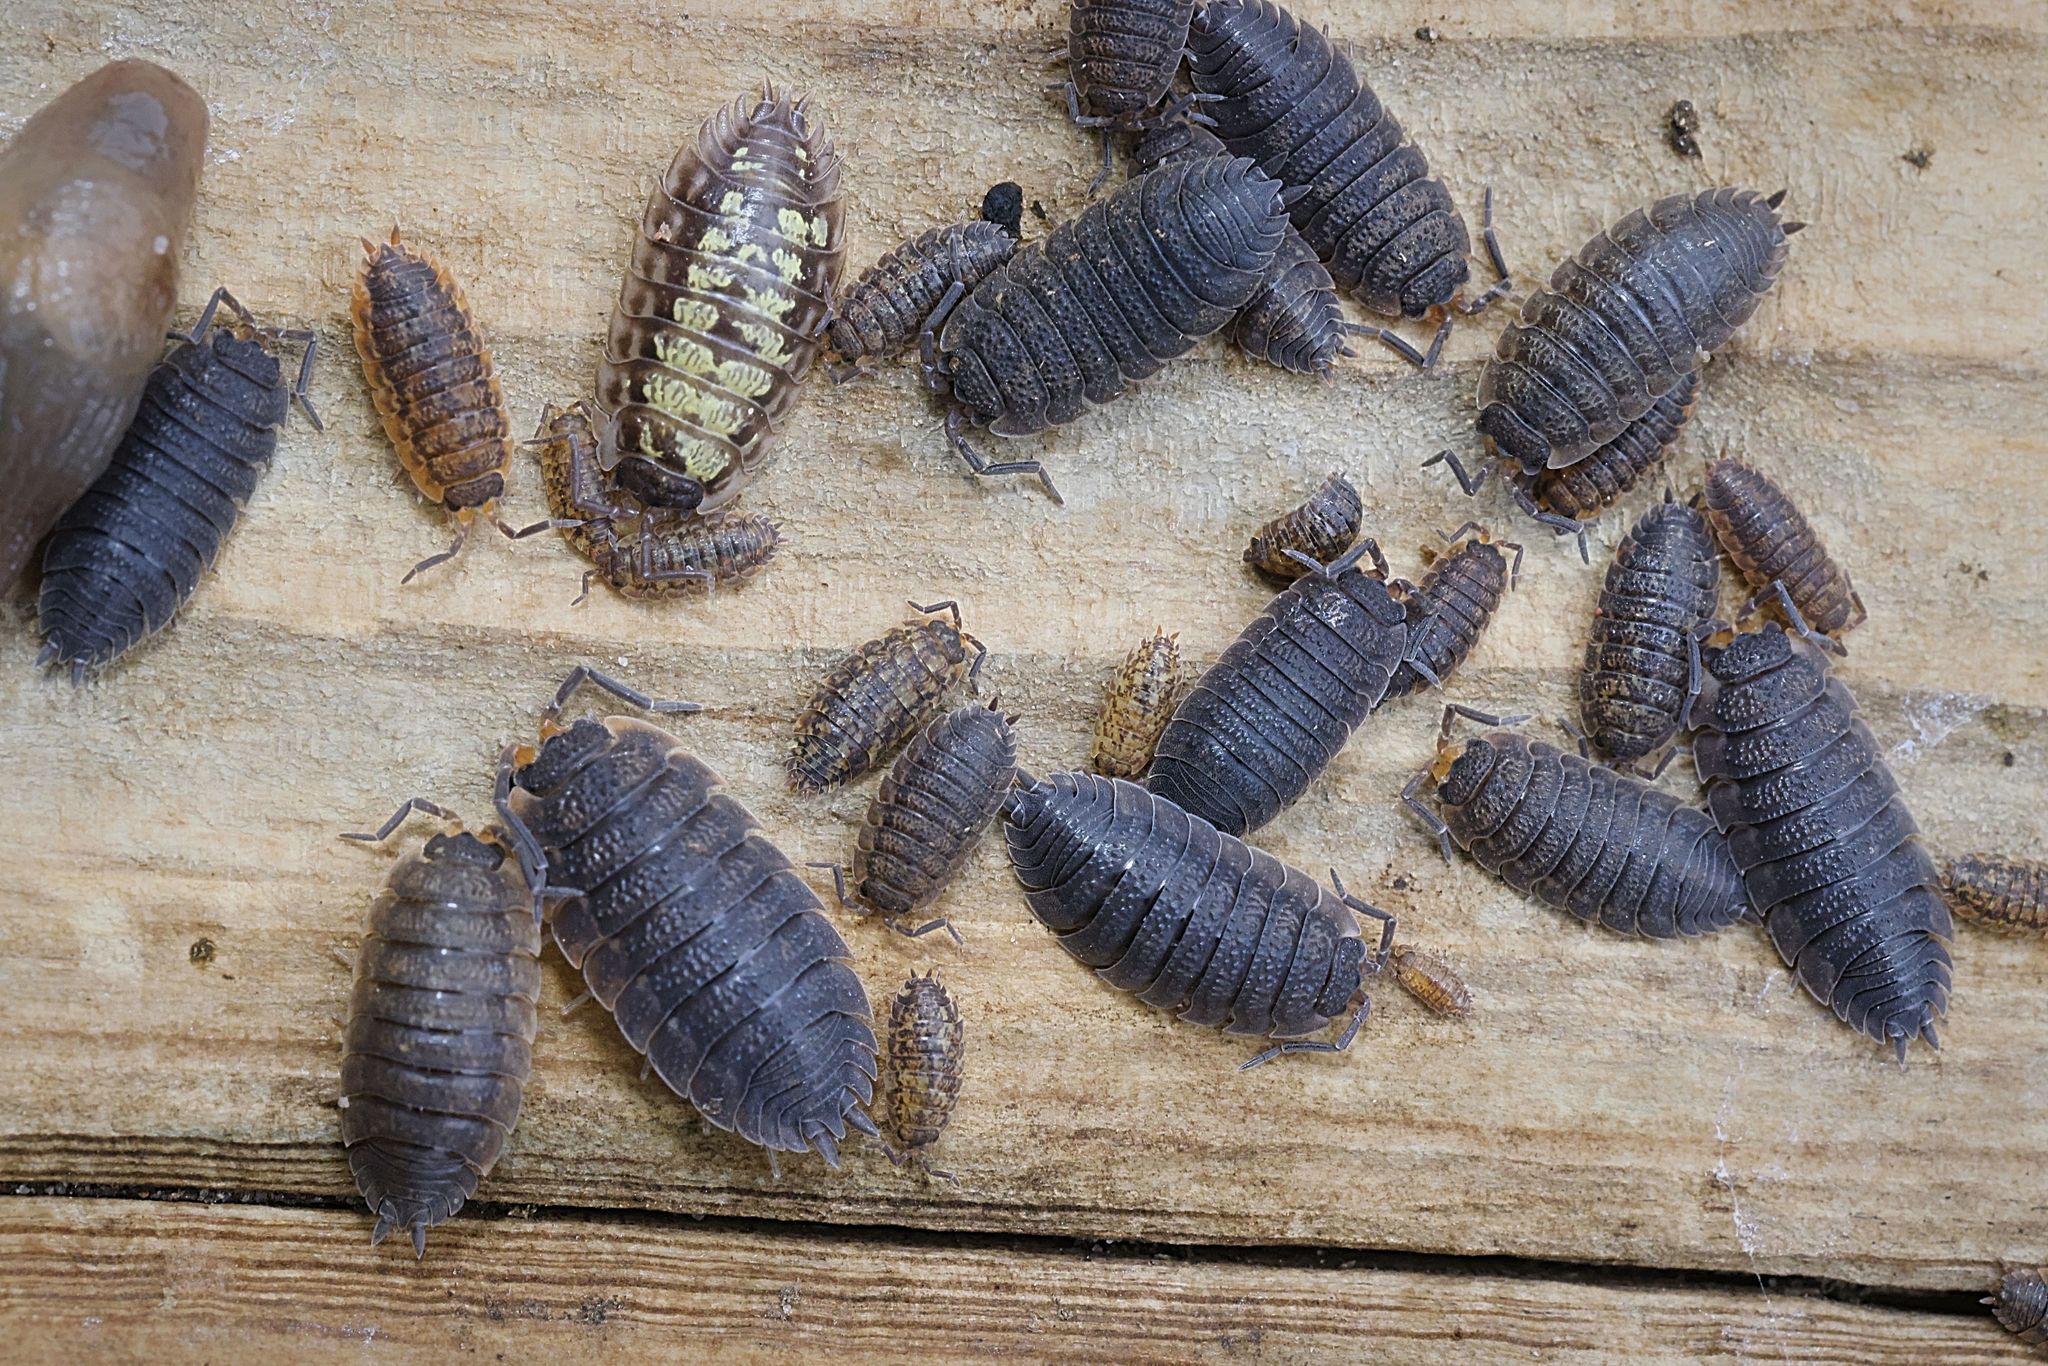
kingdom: Animalia
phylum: Arthropoda
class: Malacostraca
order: Isopoda
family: Porcellionidae
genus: Porcellio
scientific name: Porcellio scaber
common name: Common rough woodlouse
